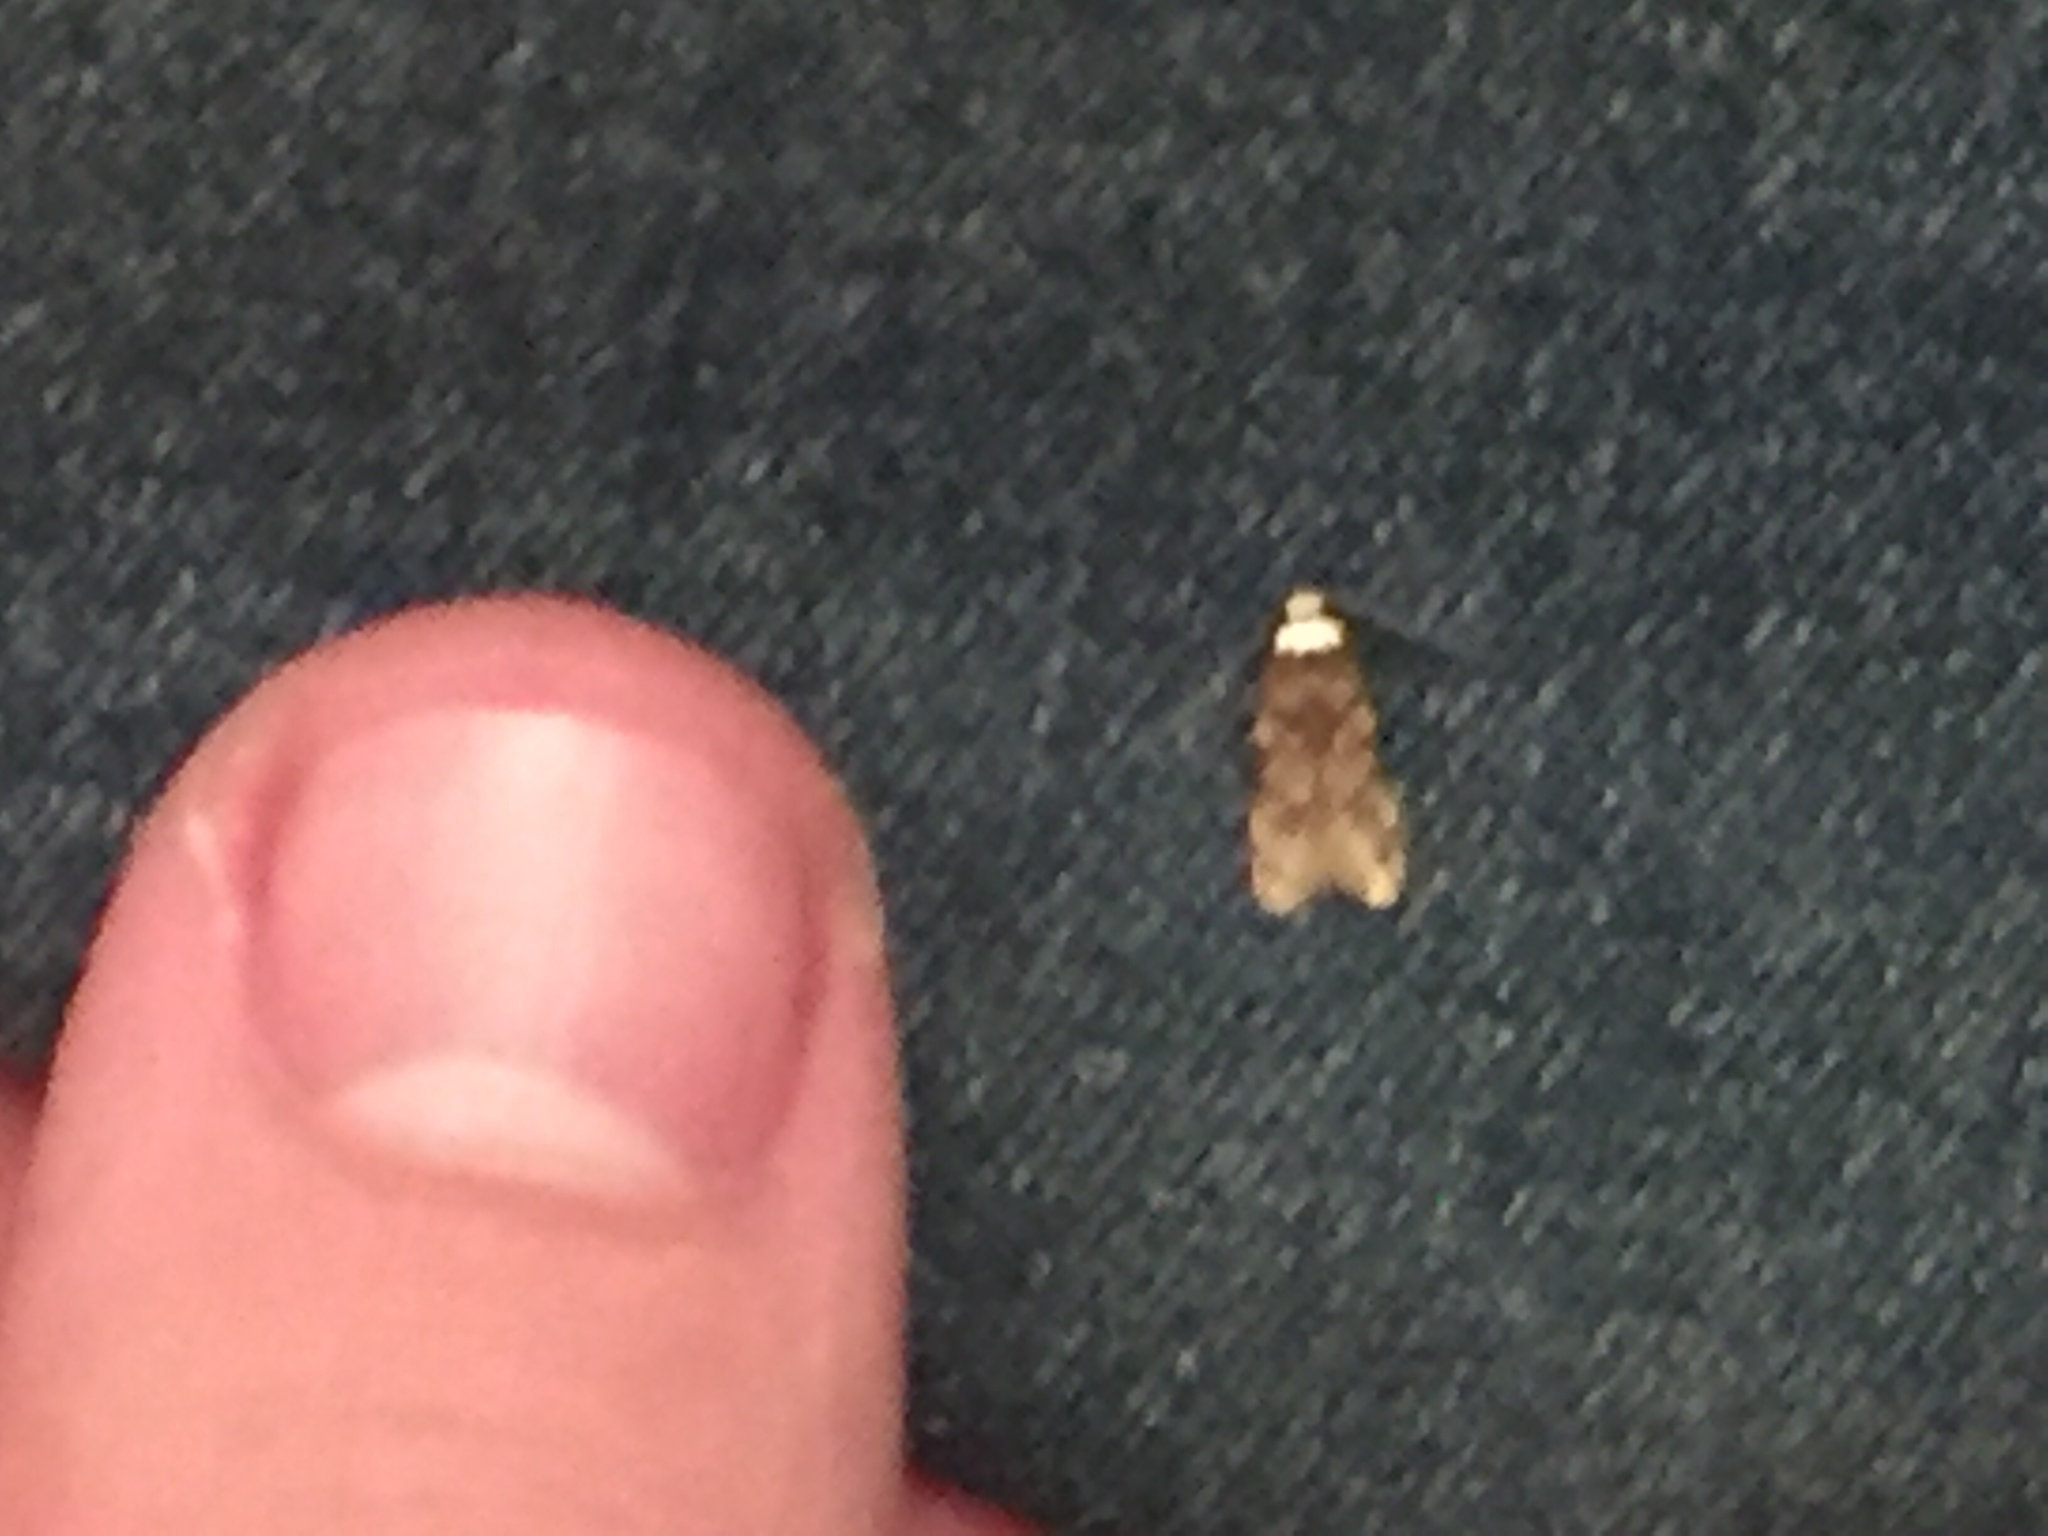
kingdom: Animalia
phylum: Arthropoda
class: Insecta
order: Lepidoptera
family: Oecophoridae
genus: Endrosis
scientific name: Endrosis sarcitrella
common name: White-shouldered house moth
